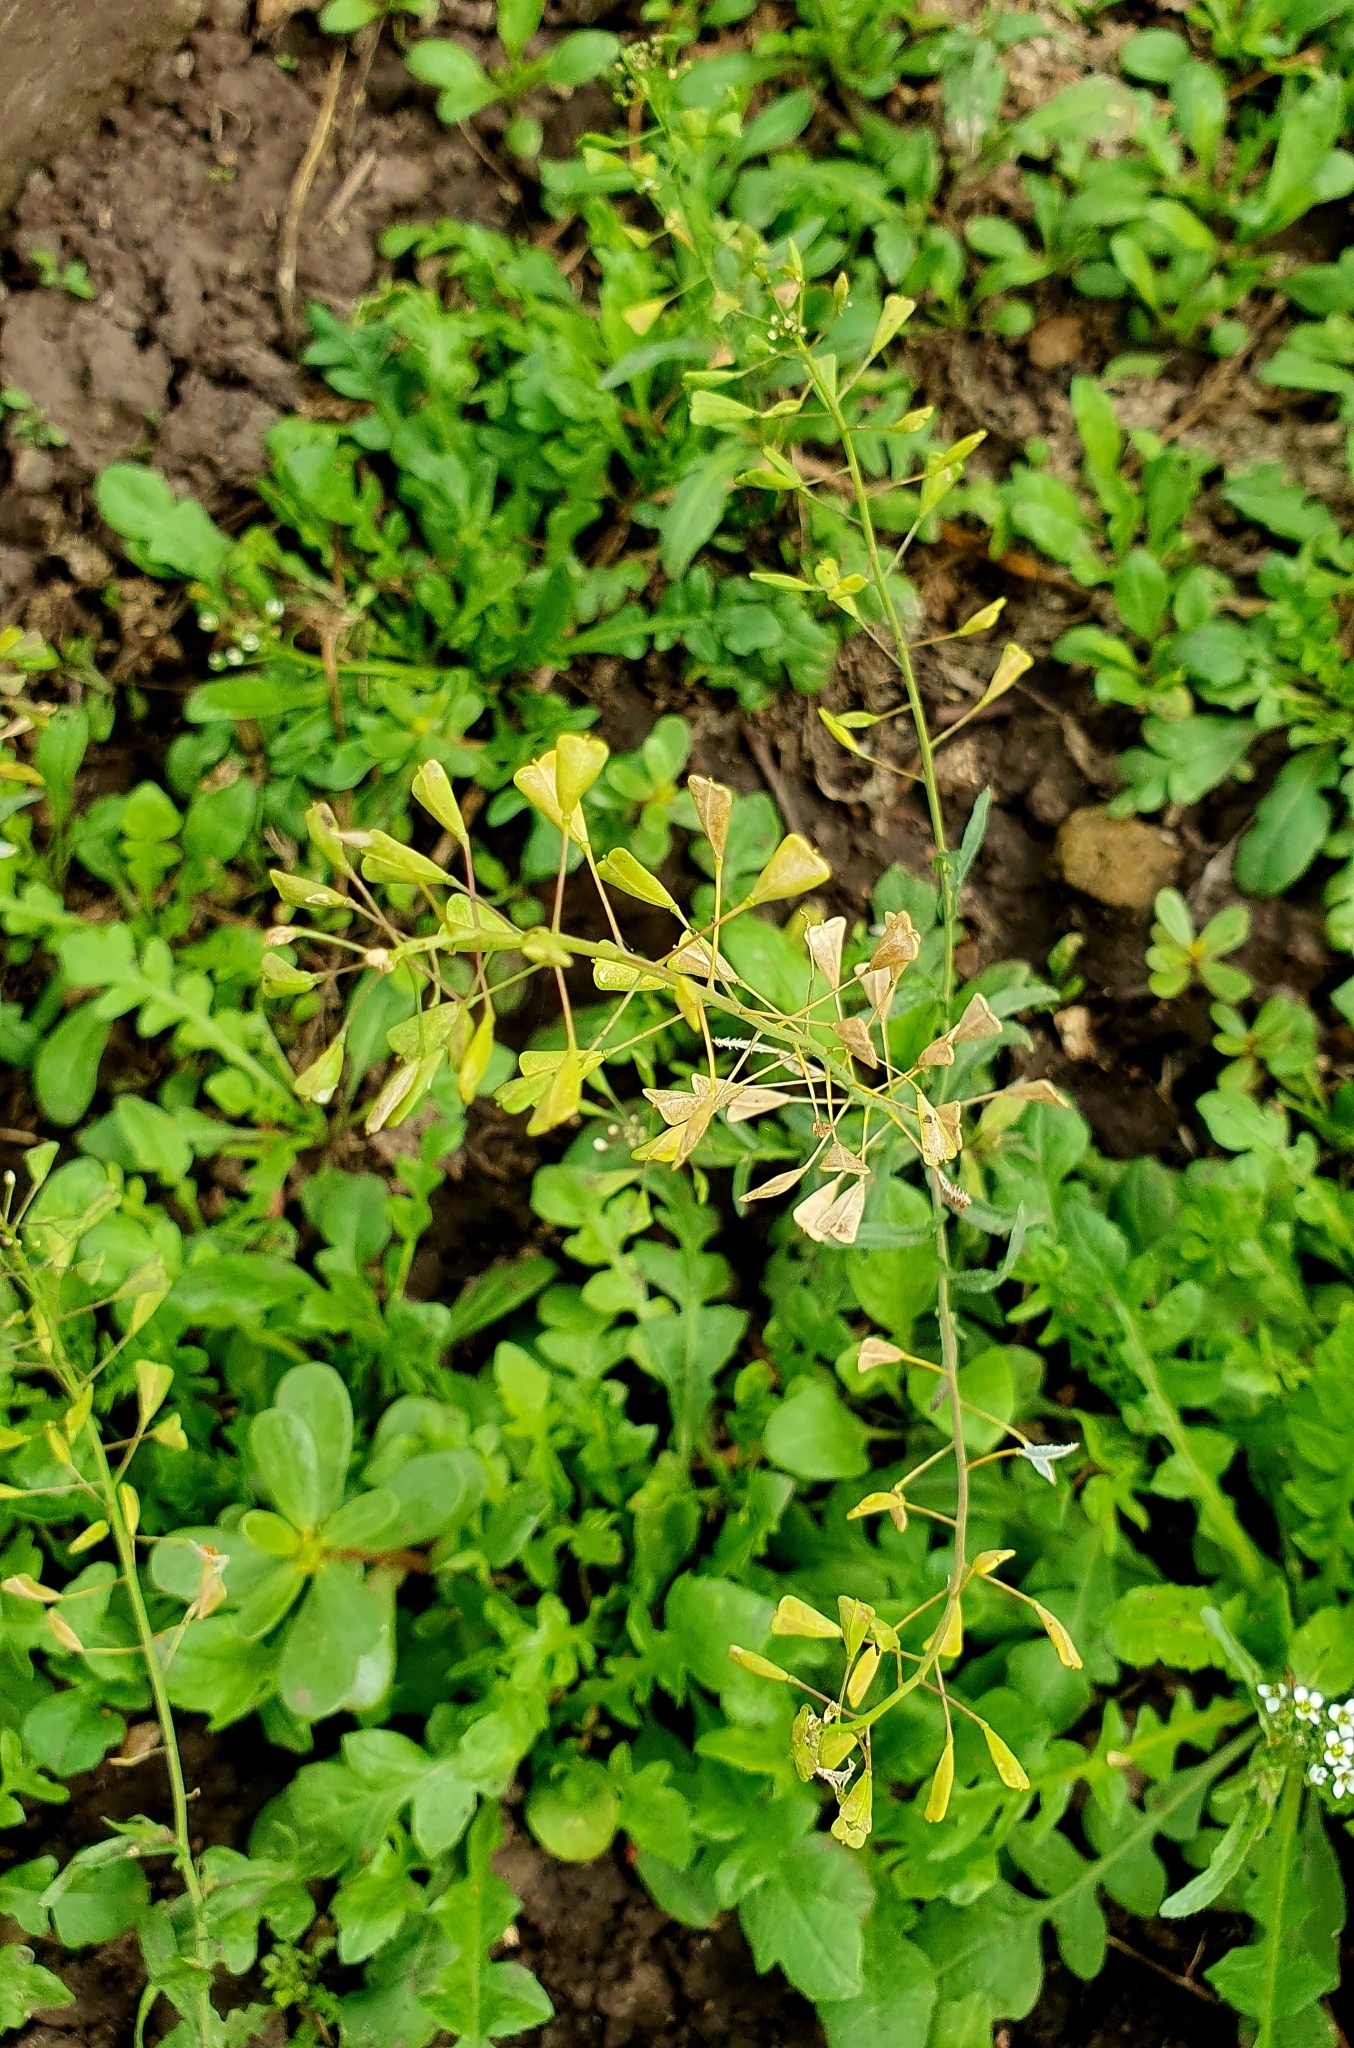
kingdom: Plantae
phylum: Tracheophyta
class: Magnoliopsida
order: Brassicales
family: Brassicaceae
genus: Capsella
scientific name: Capsella bursa-pastoris
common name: Shepherd's purse
